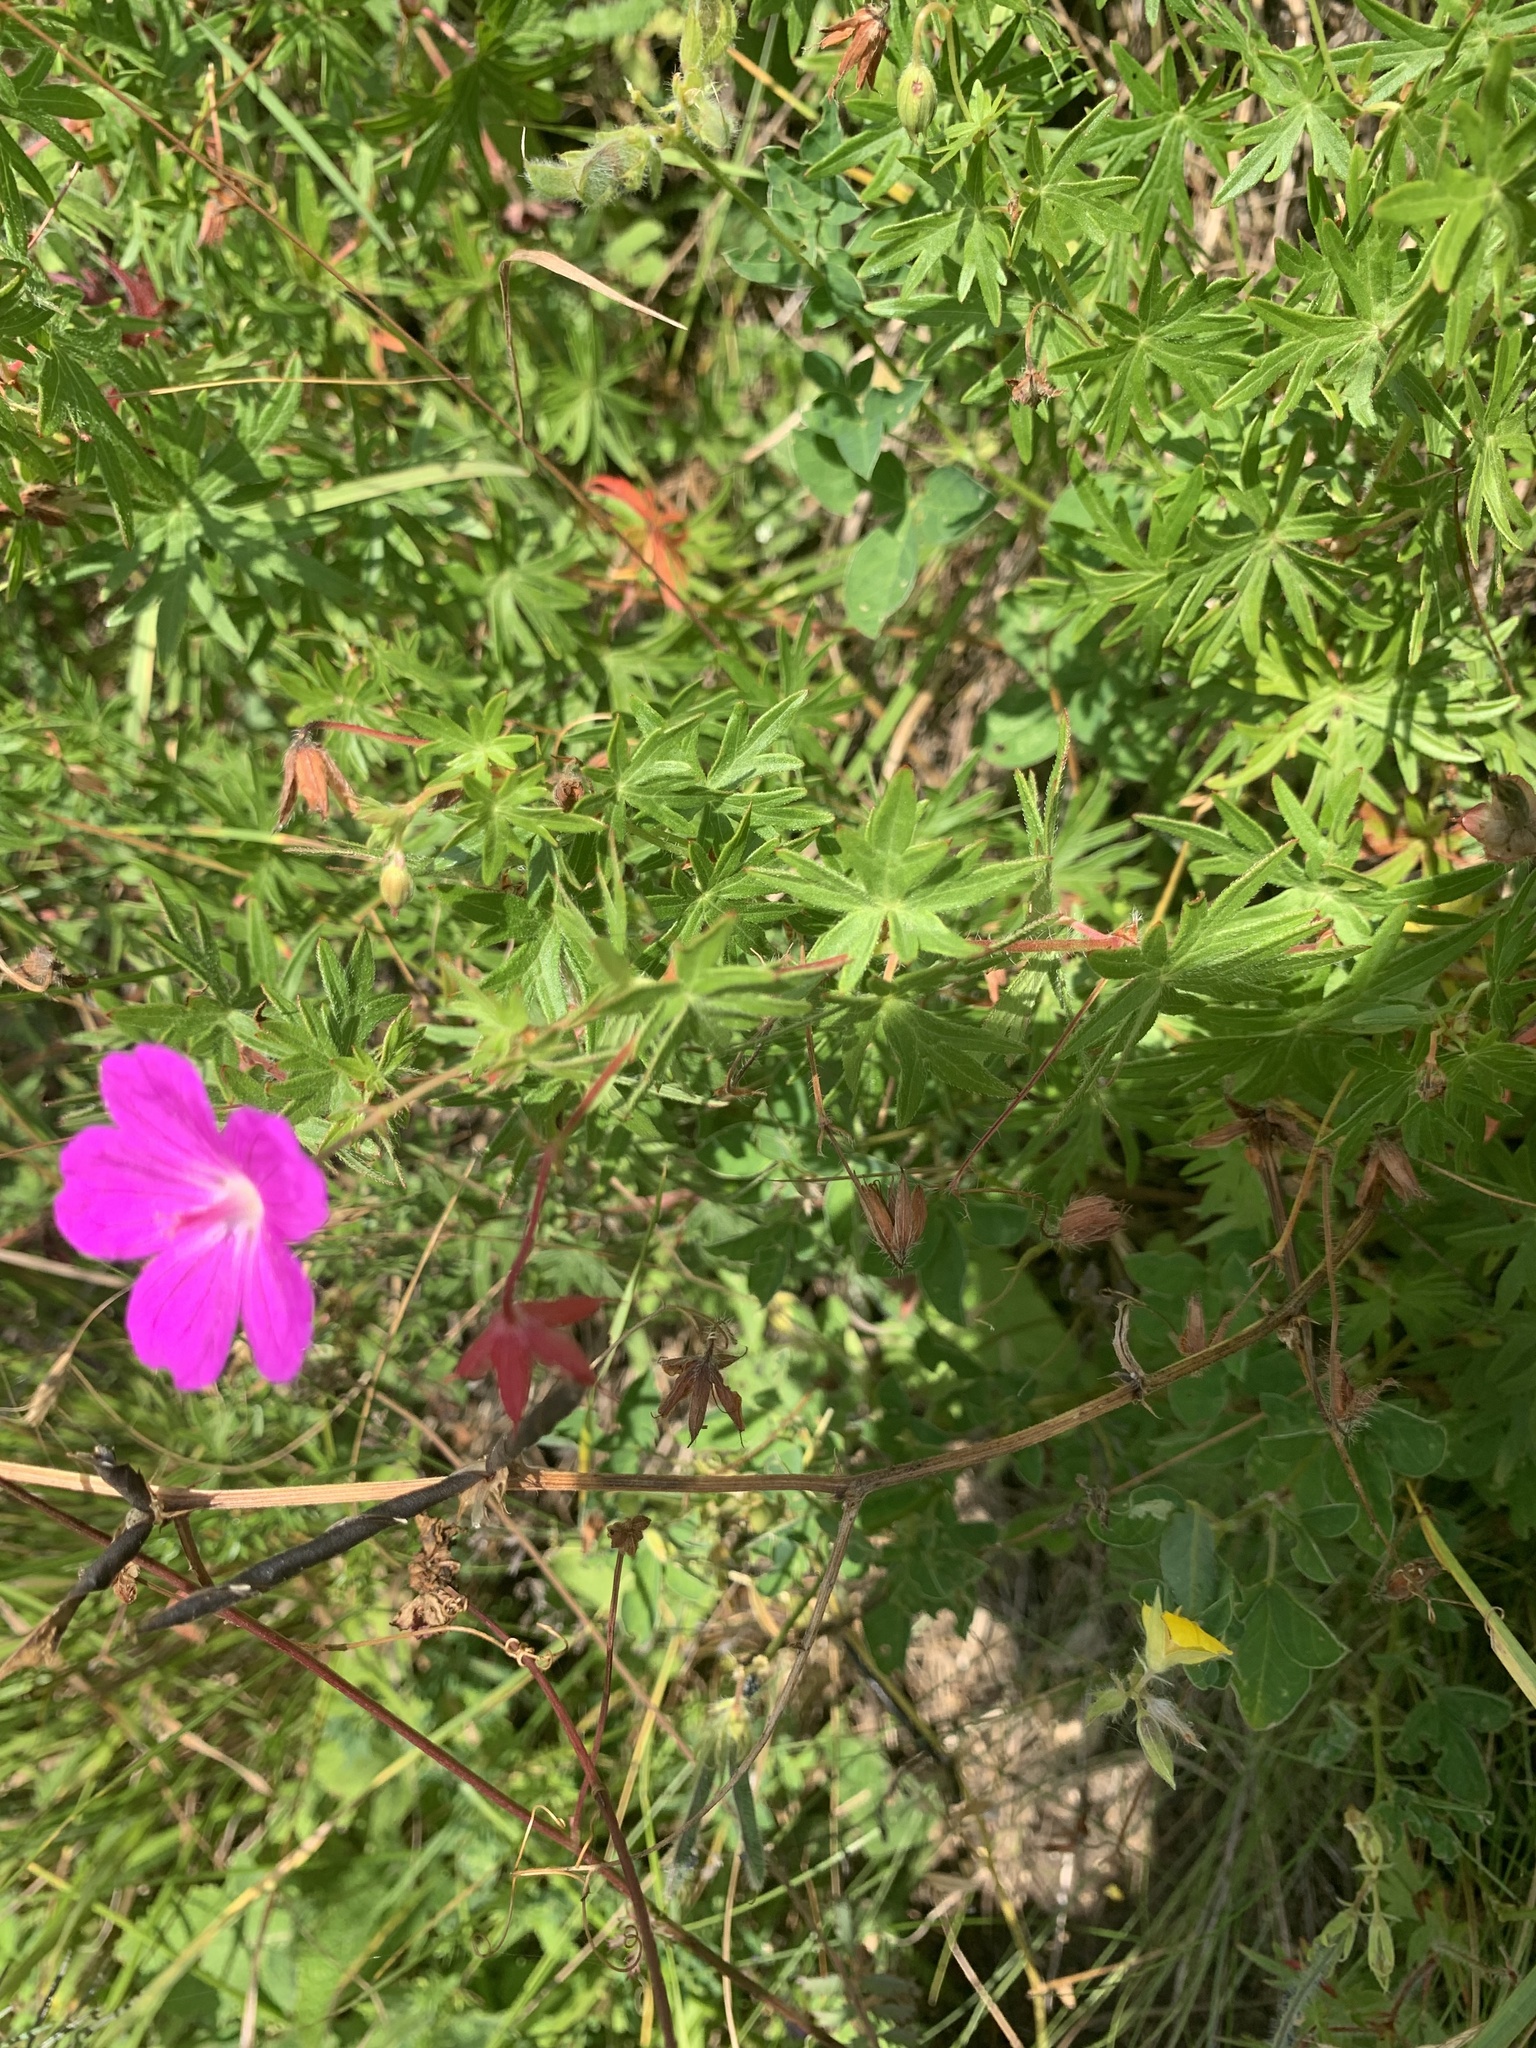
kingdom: Plantae
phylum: Tracheophyta
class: Magnoliopsida
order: Geraniales
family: Geraniaceae
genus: Geranium
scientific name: Geranium sanguineum
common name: Bloody crane's-bill
